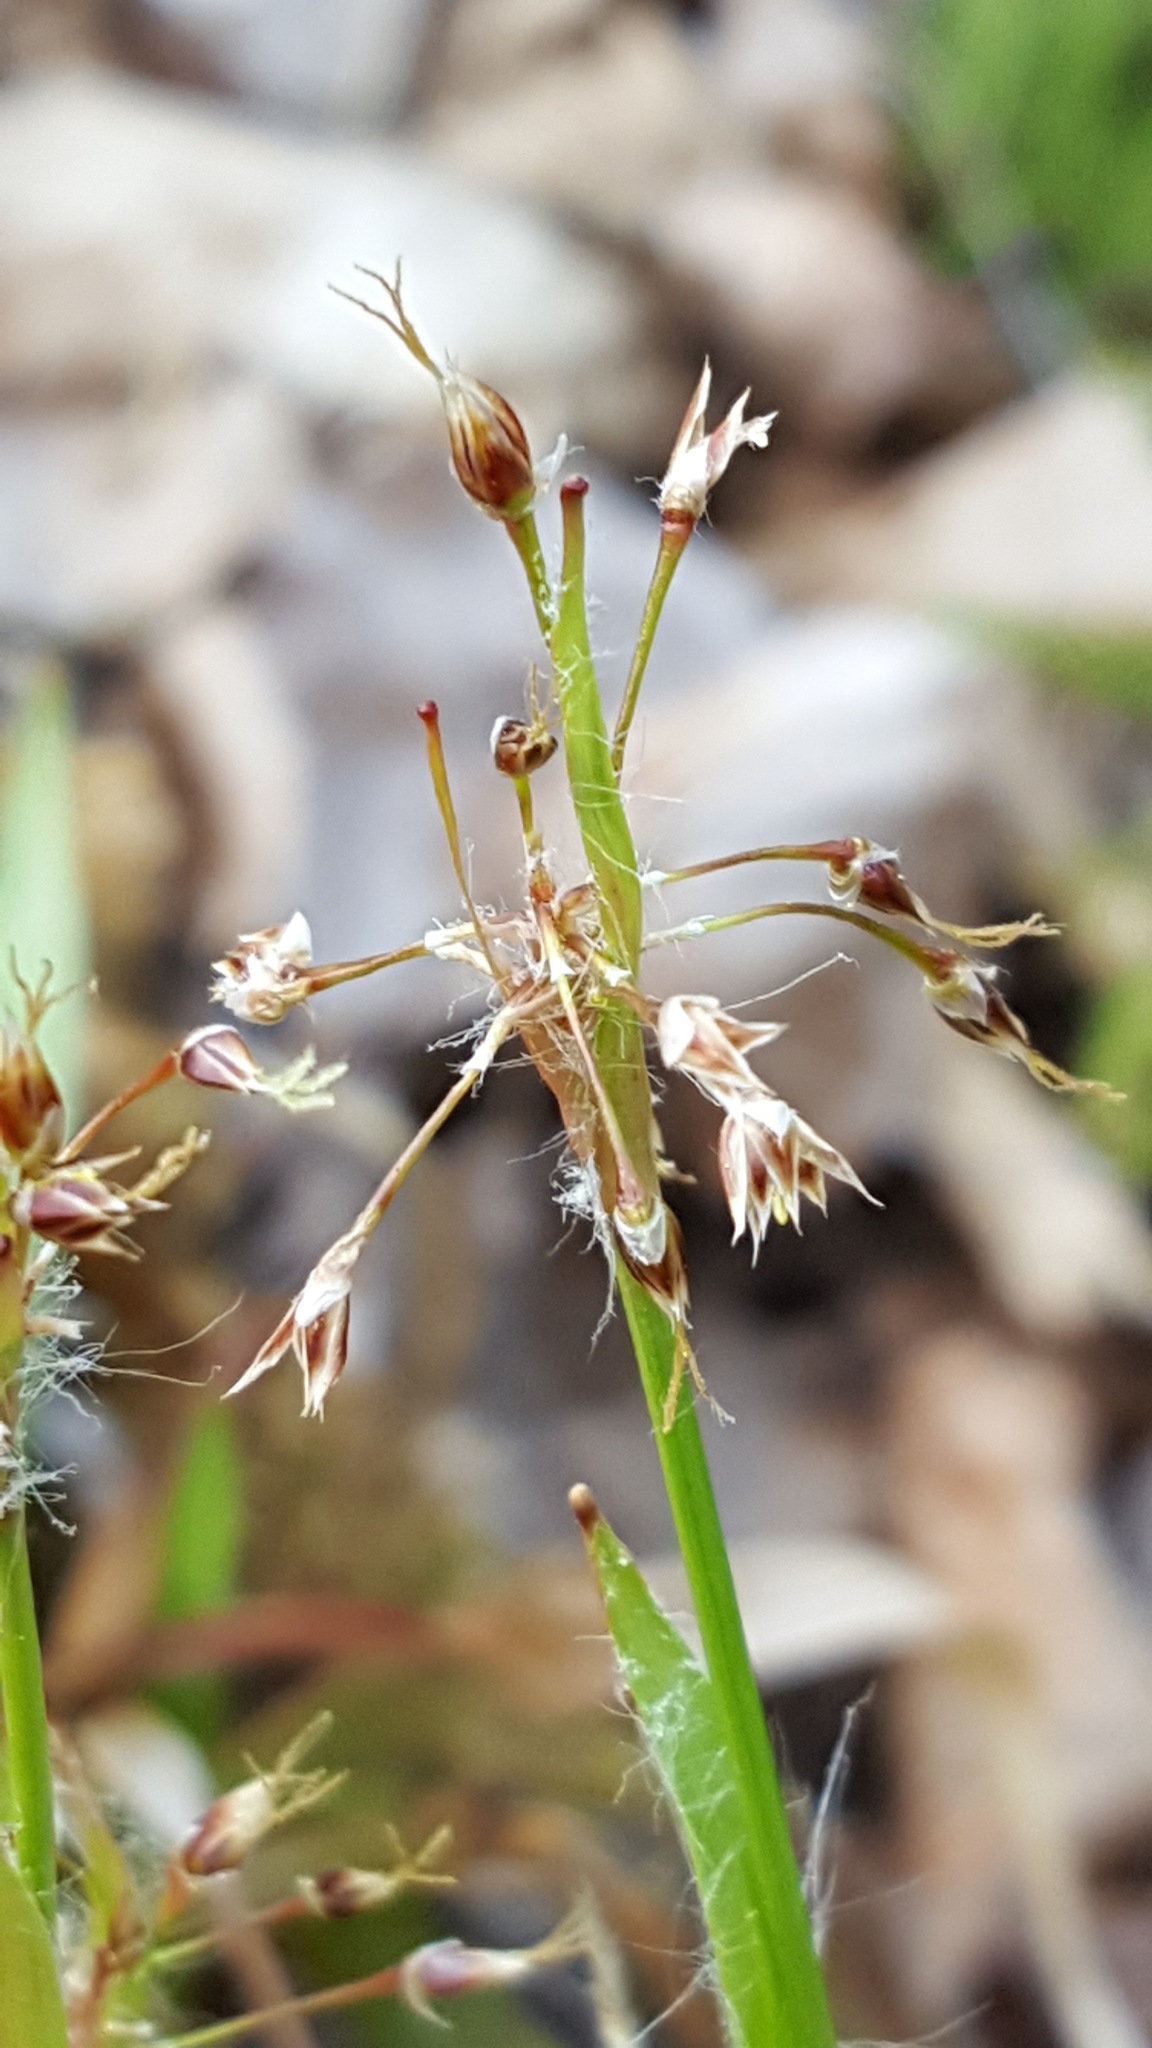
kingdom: Plantae
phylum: Tracheophyta
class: Liliopsida
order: Poales
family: Juncaceae
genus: Luzula
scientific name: Luzula acuminata
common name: Hairy woodrush
